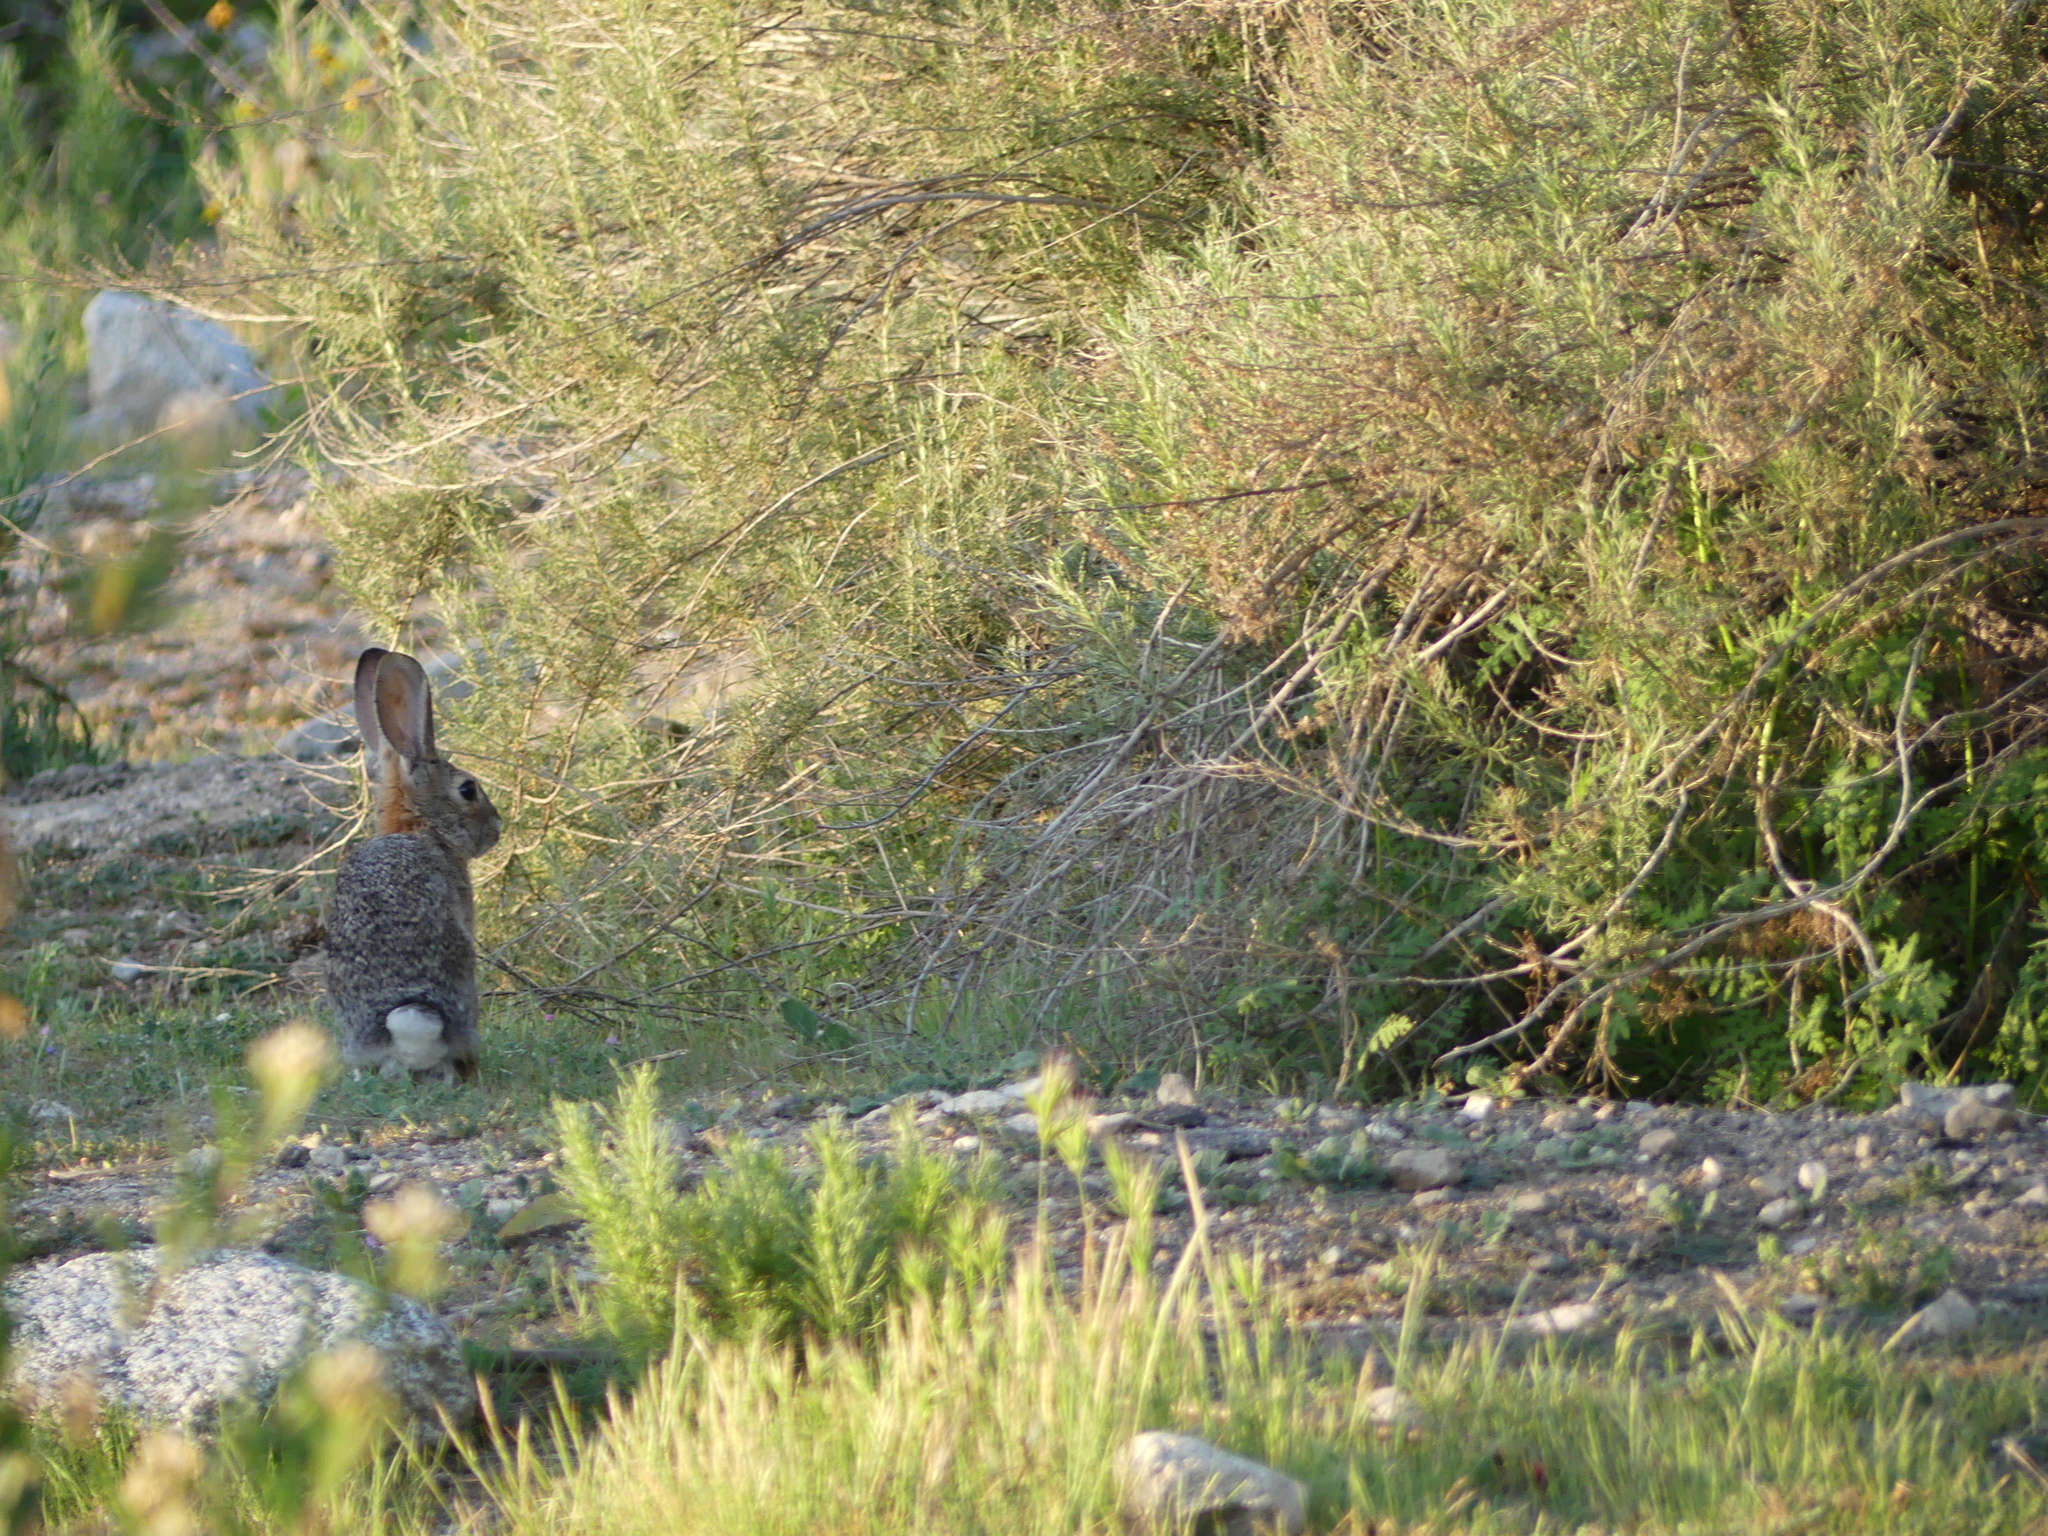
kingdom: Animalia
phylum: Chordata
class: Mammalia
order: Lagomorpha
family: Leporidae
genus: Sylvilagus
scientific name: Sylvilagus audubonii
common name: Desert cottontail
